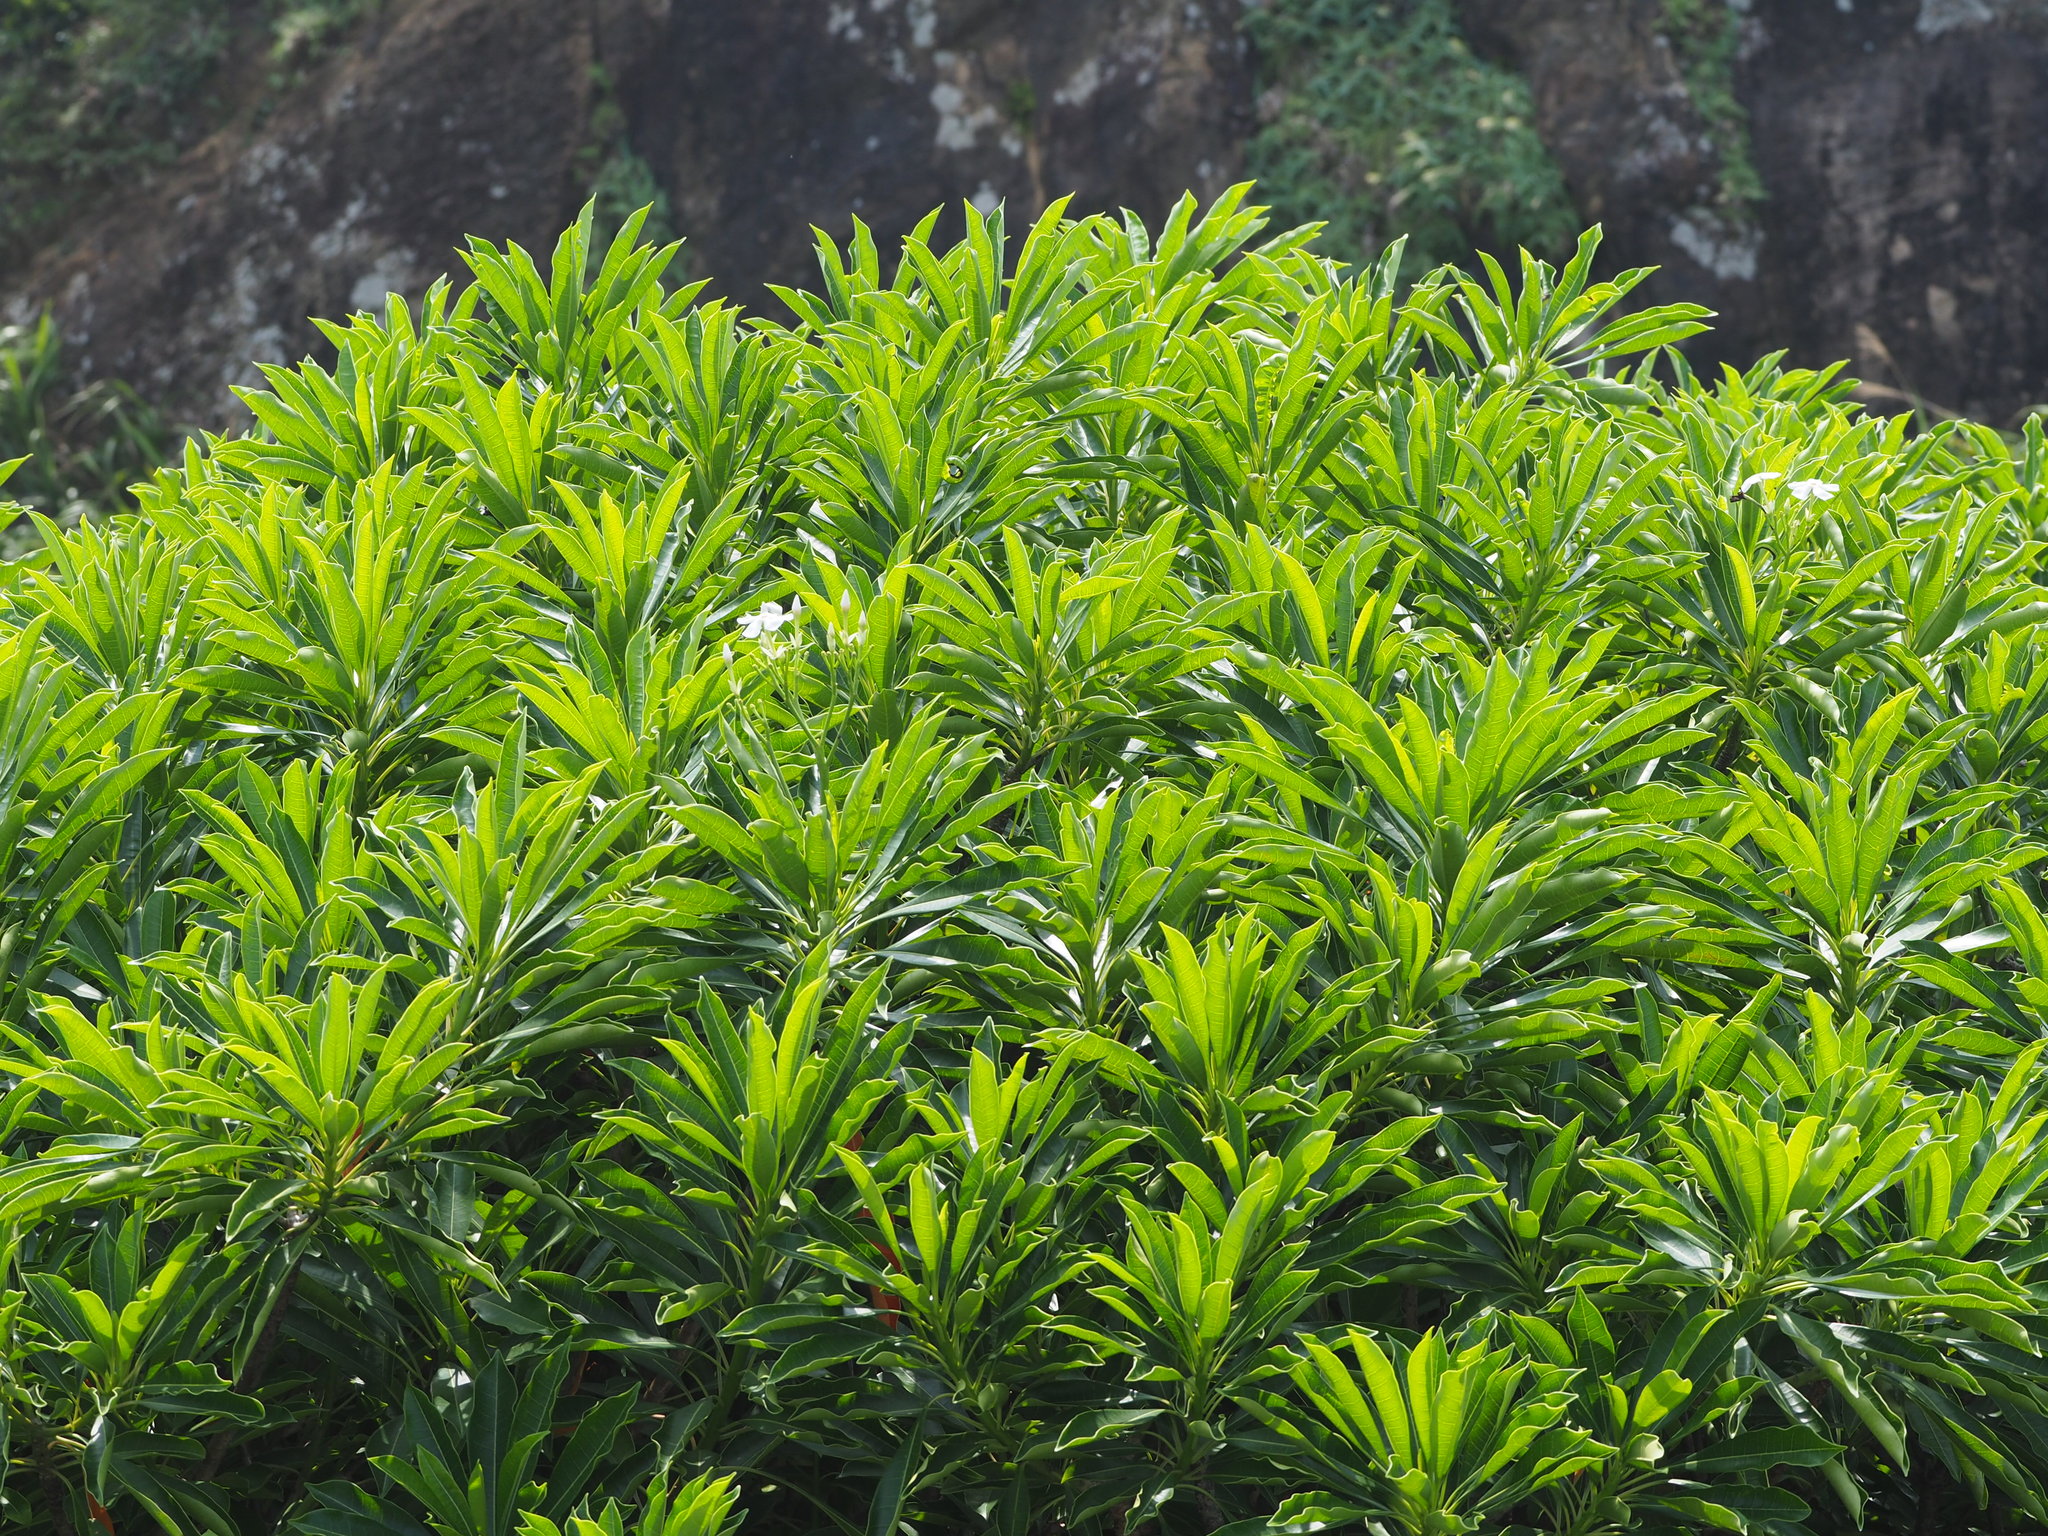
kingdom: Plantae
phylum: Tracheophyta
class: Magnoliopsida
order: Gentianales
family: Apocynaceae
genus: Cerbera
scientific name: Cerbera manghas
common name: Reva
